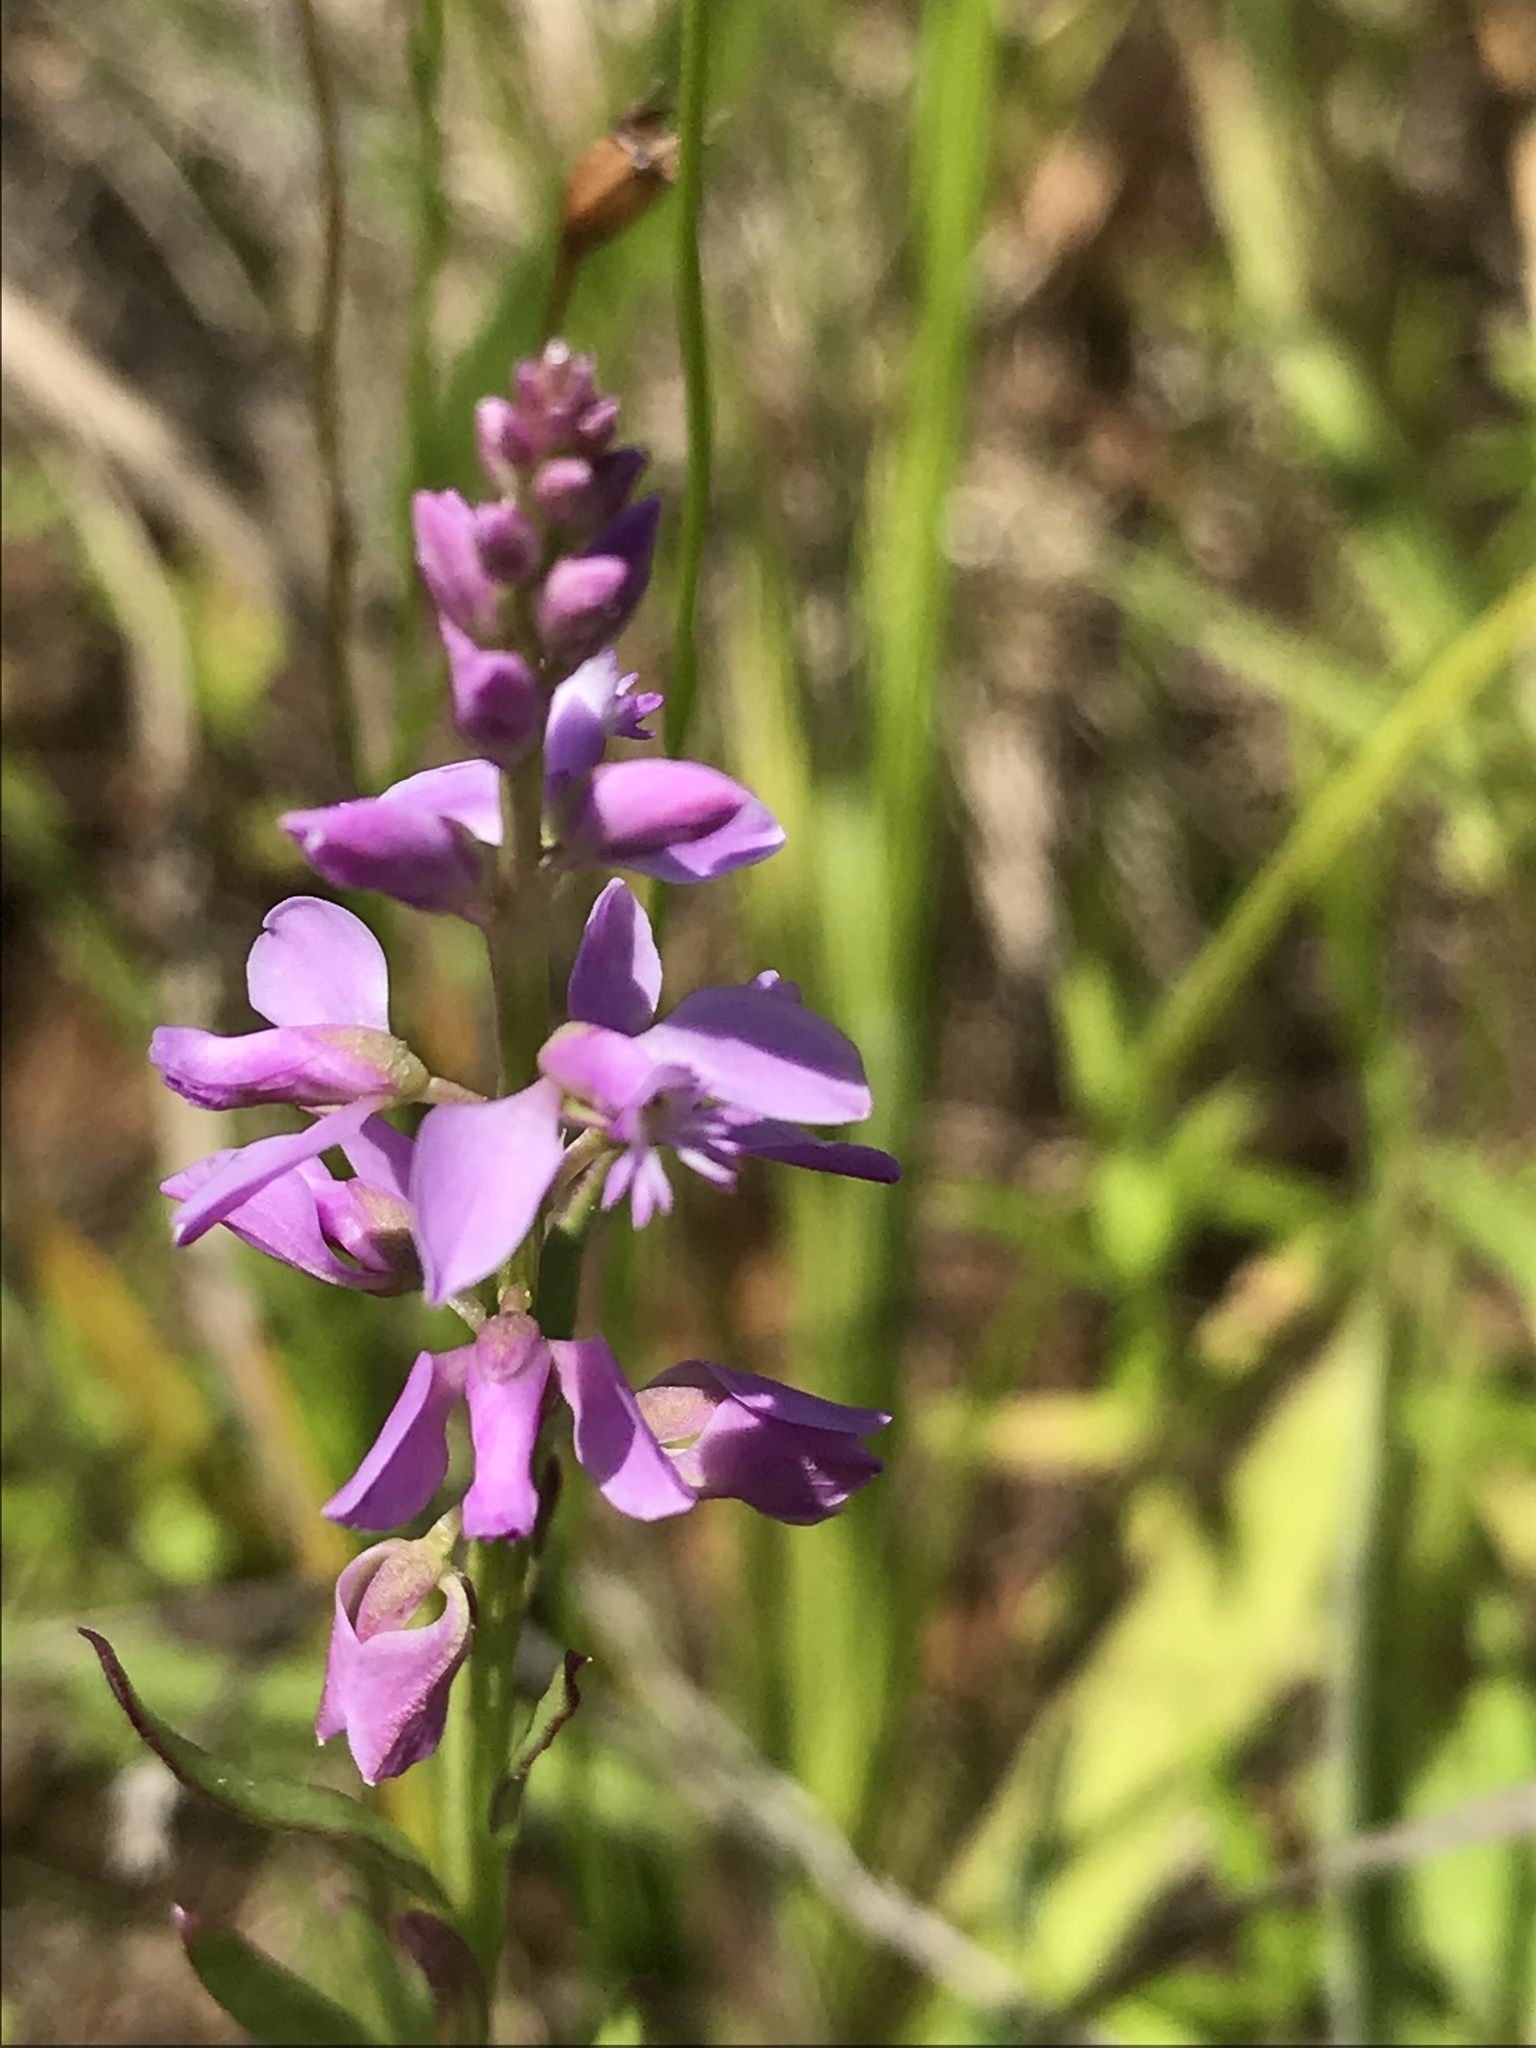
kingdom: Plantae
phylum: Tracheophyta
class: Magnoliopsida
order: Fabales
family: Polygalaceae
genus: Polygala
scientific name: Polygala polygama
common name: Bitter milkwort
